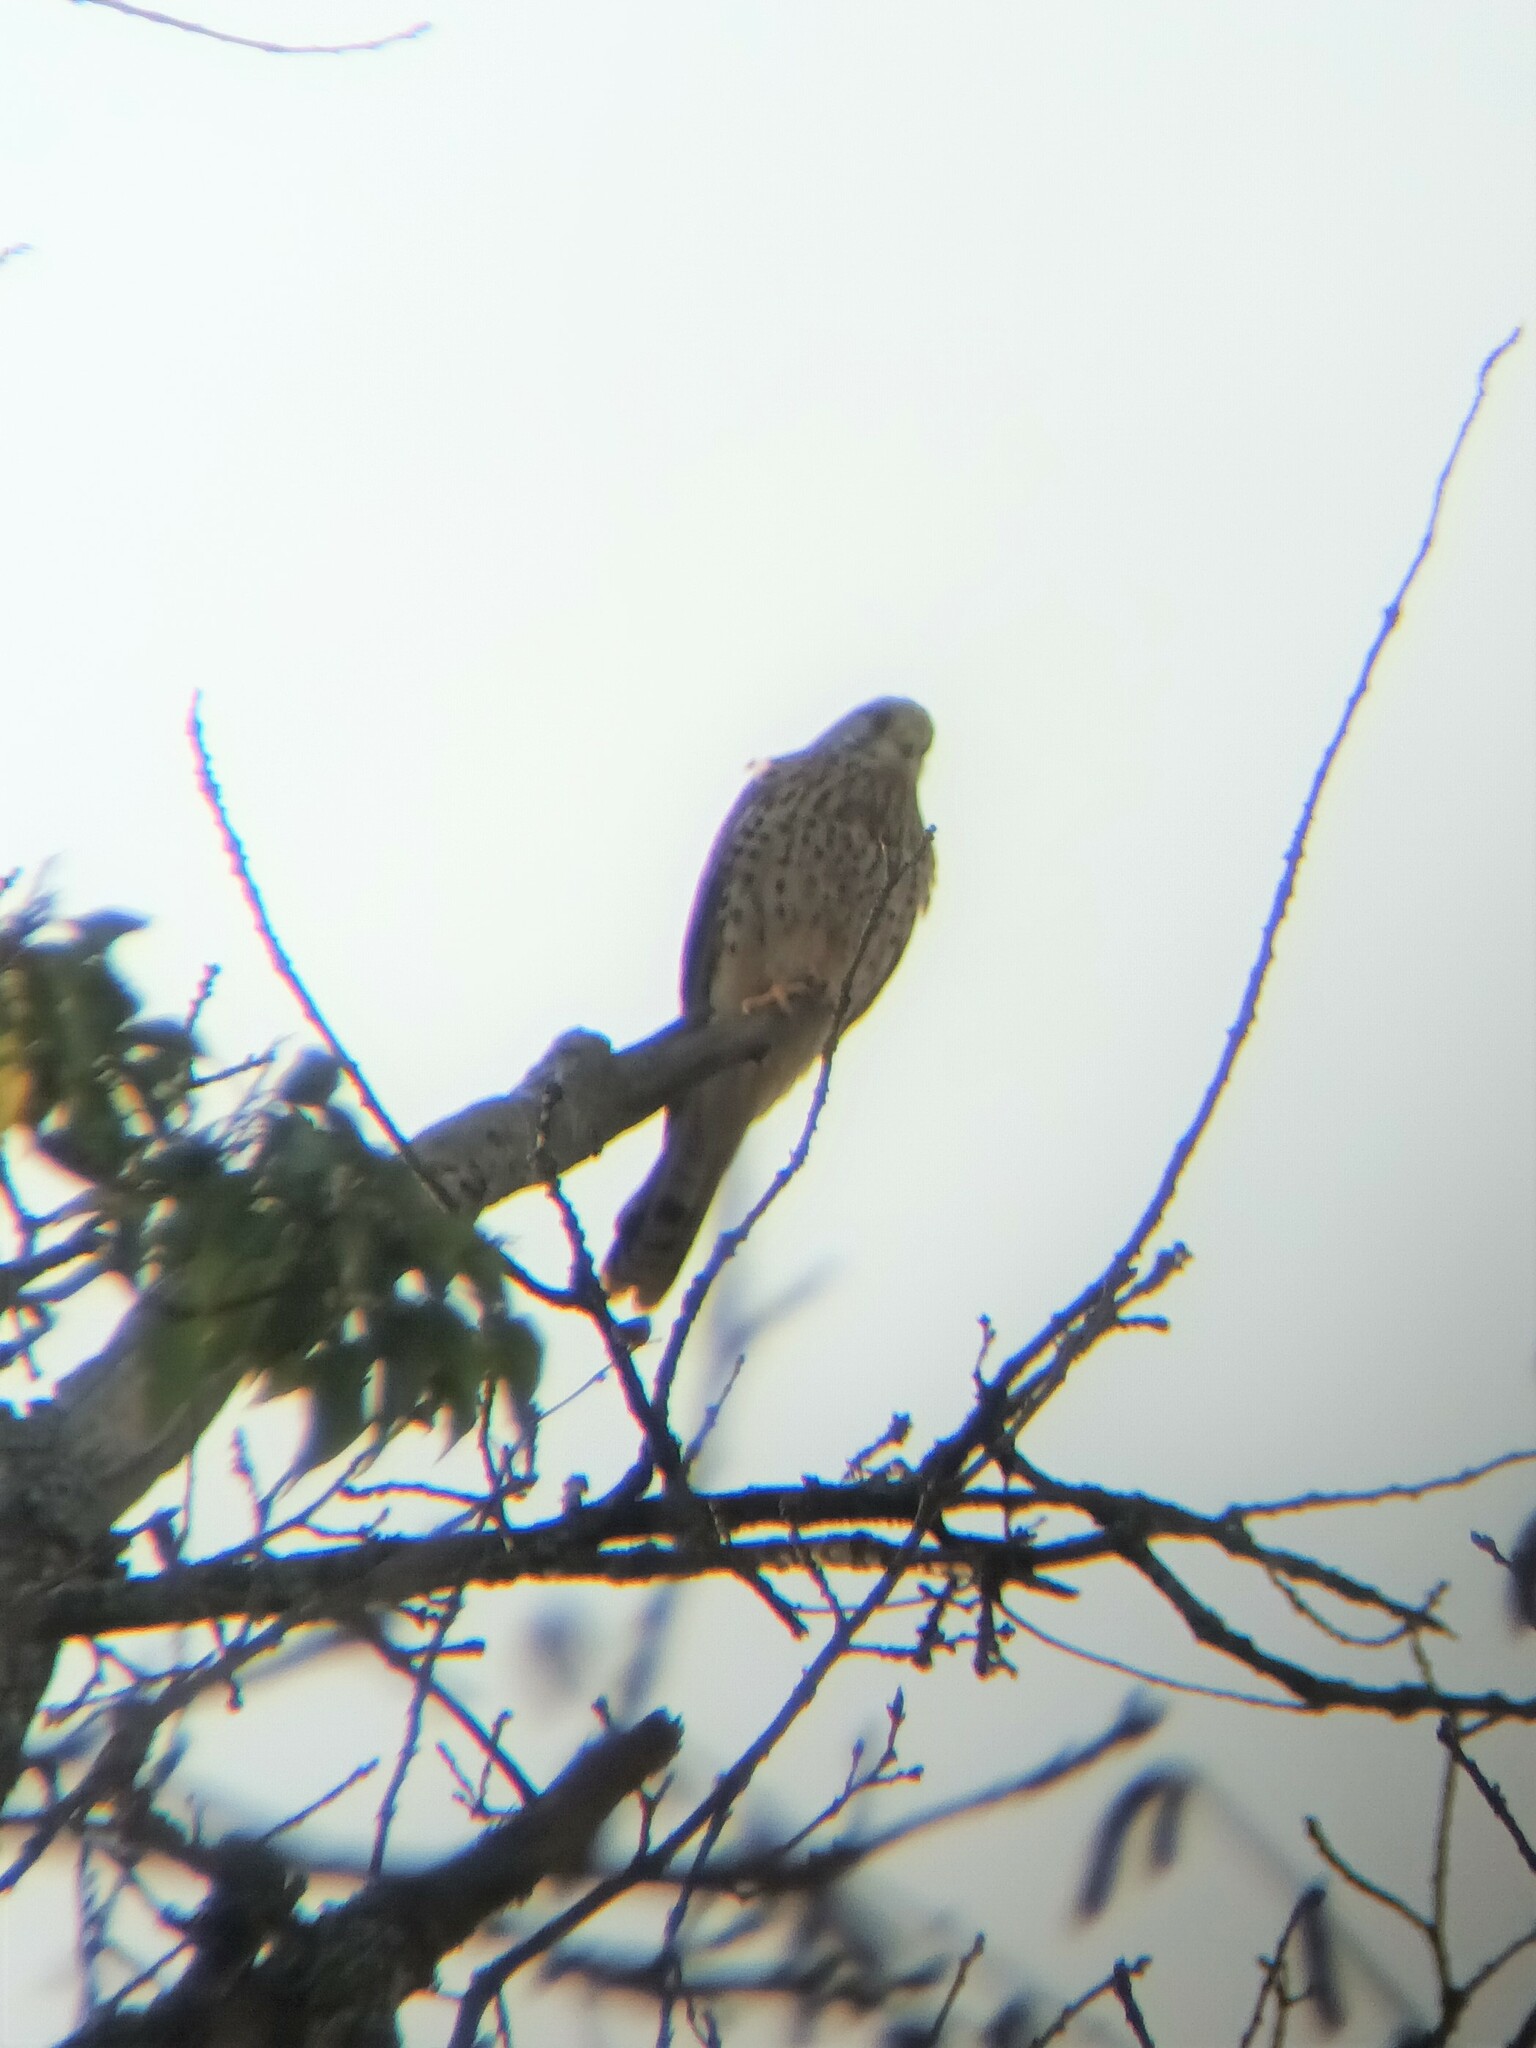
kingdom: Animalia
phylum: Chordata
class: Aves
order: Falconiformes
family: Falconidae
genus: Falco
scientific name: Falco tinnunculus
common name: Common kestrel
